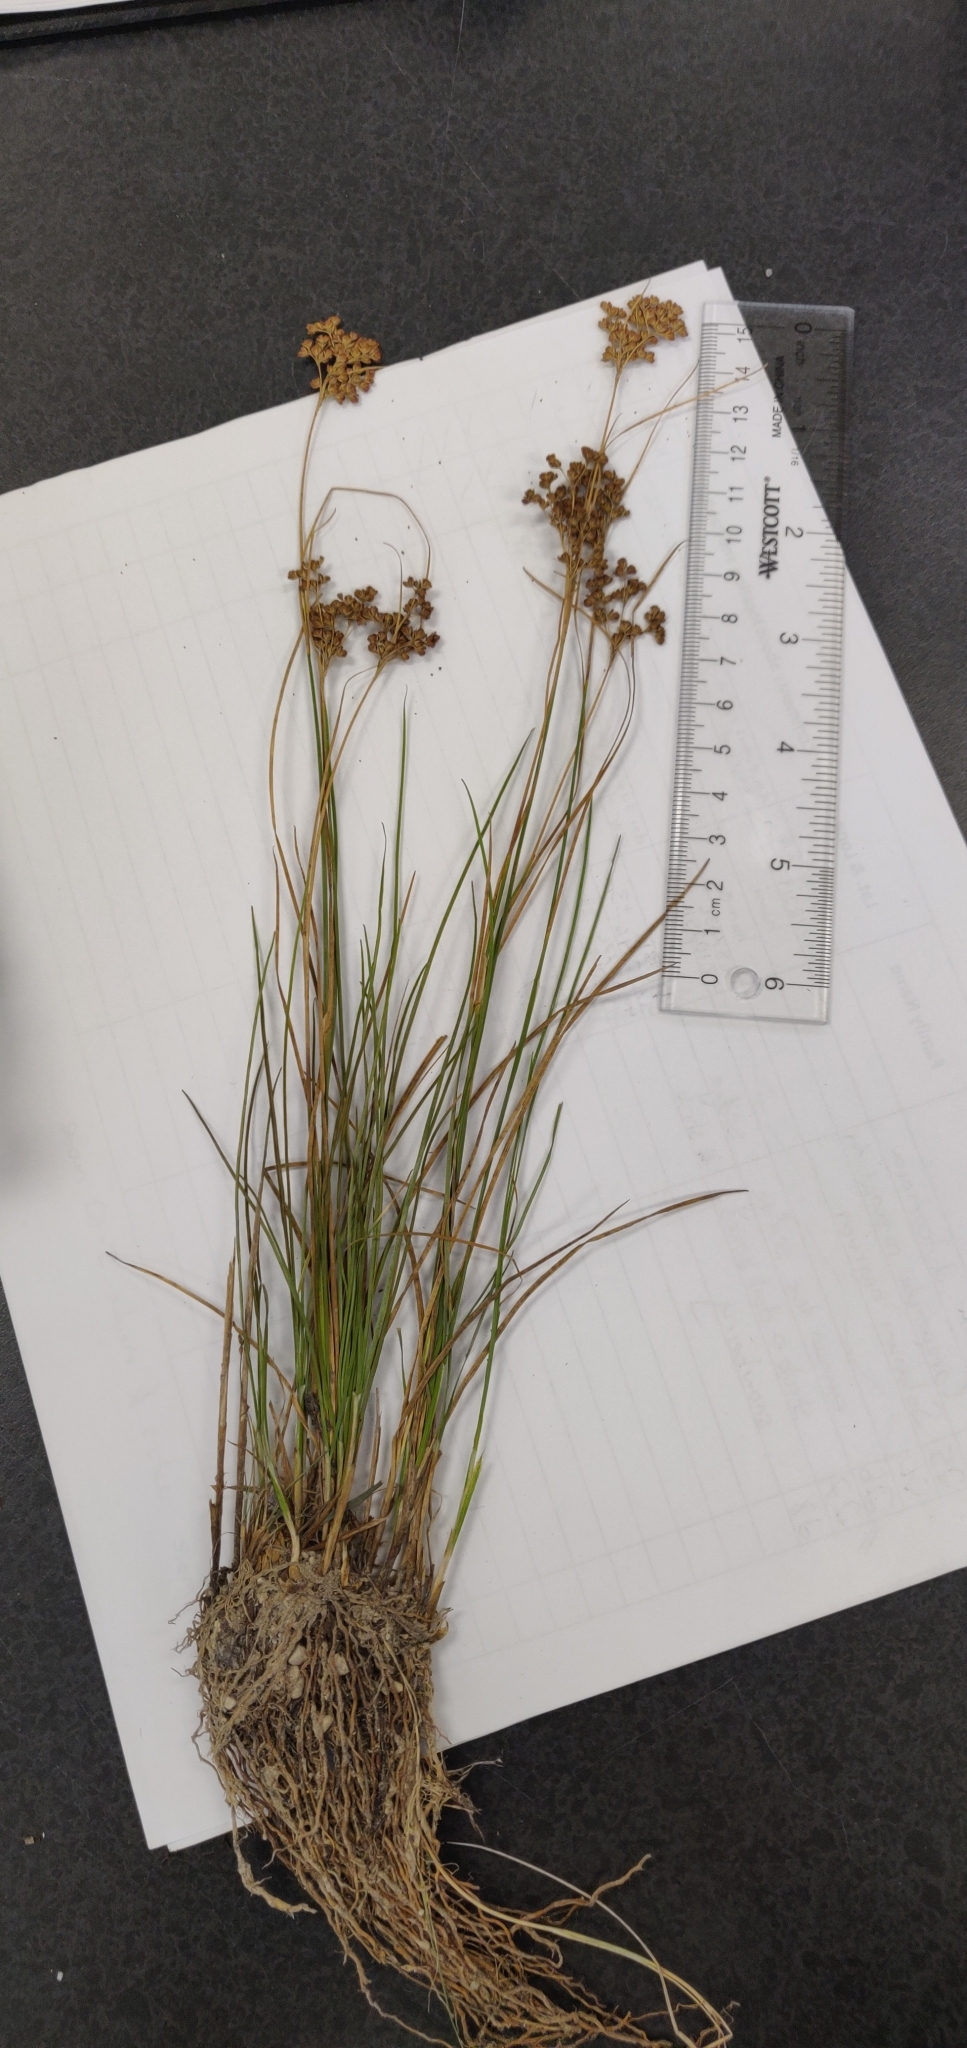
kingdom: Plantae
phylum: Tracheophyta
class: Liliopsida
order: Poales
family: Juncaceae
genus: Juncus
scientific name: Juncus compressus
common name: Round-fruited rush
